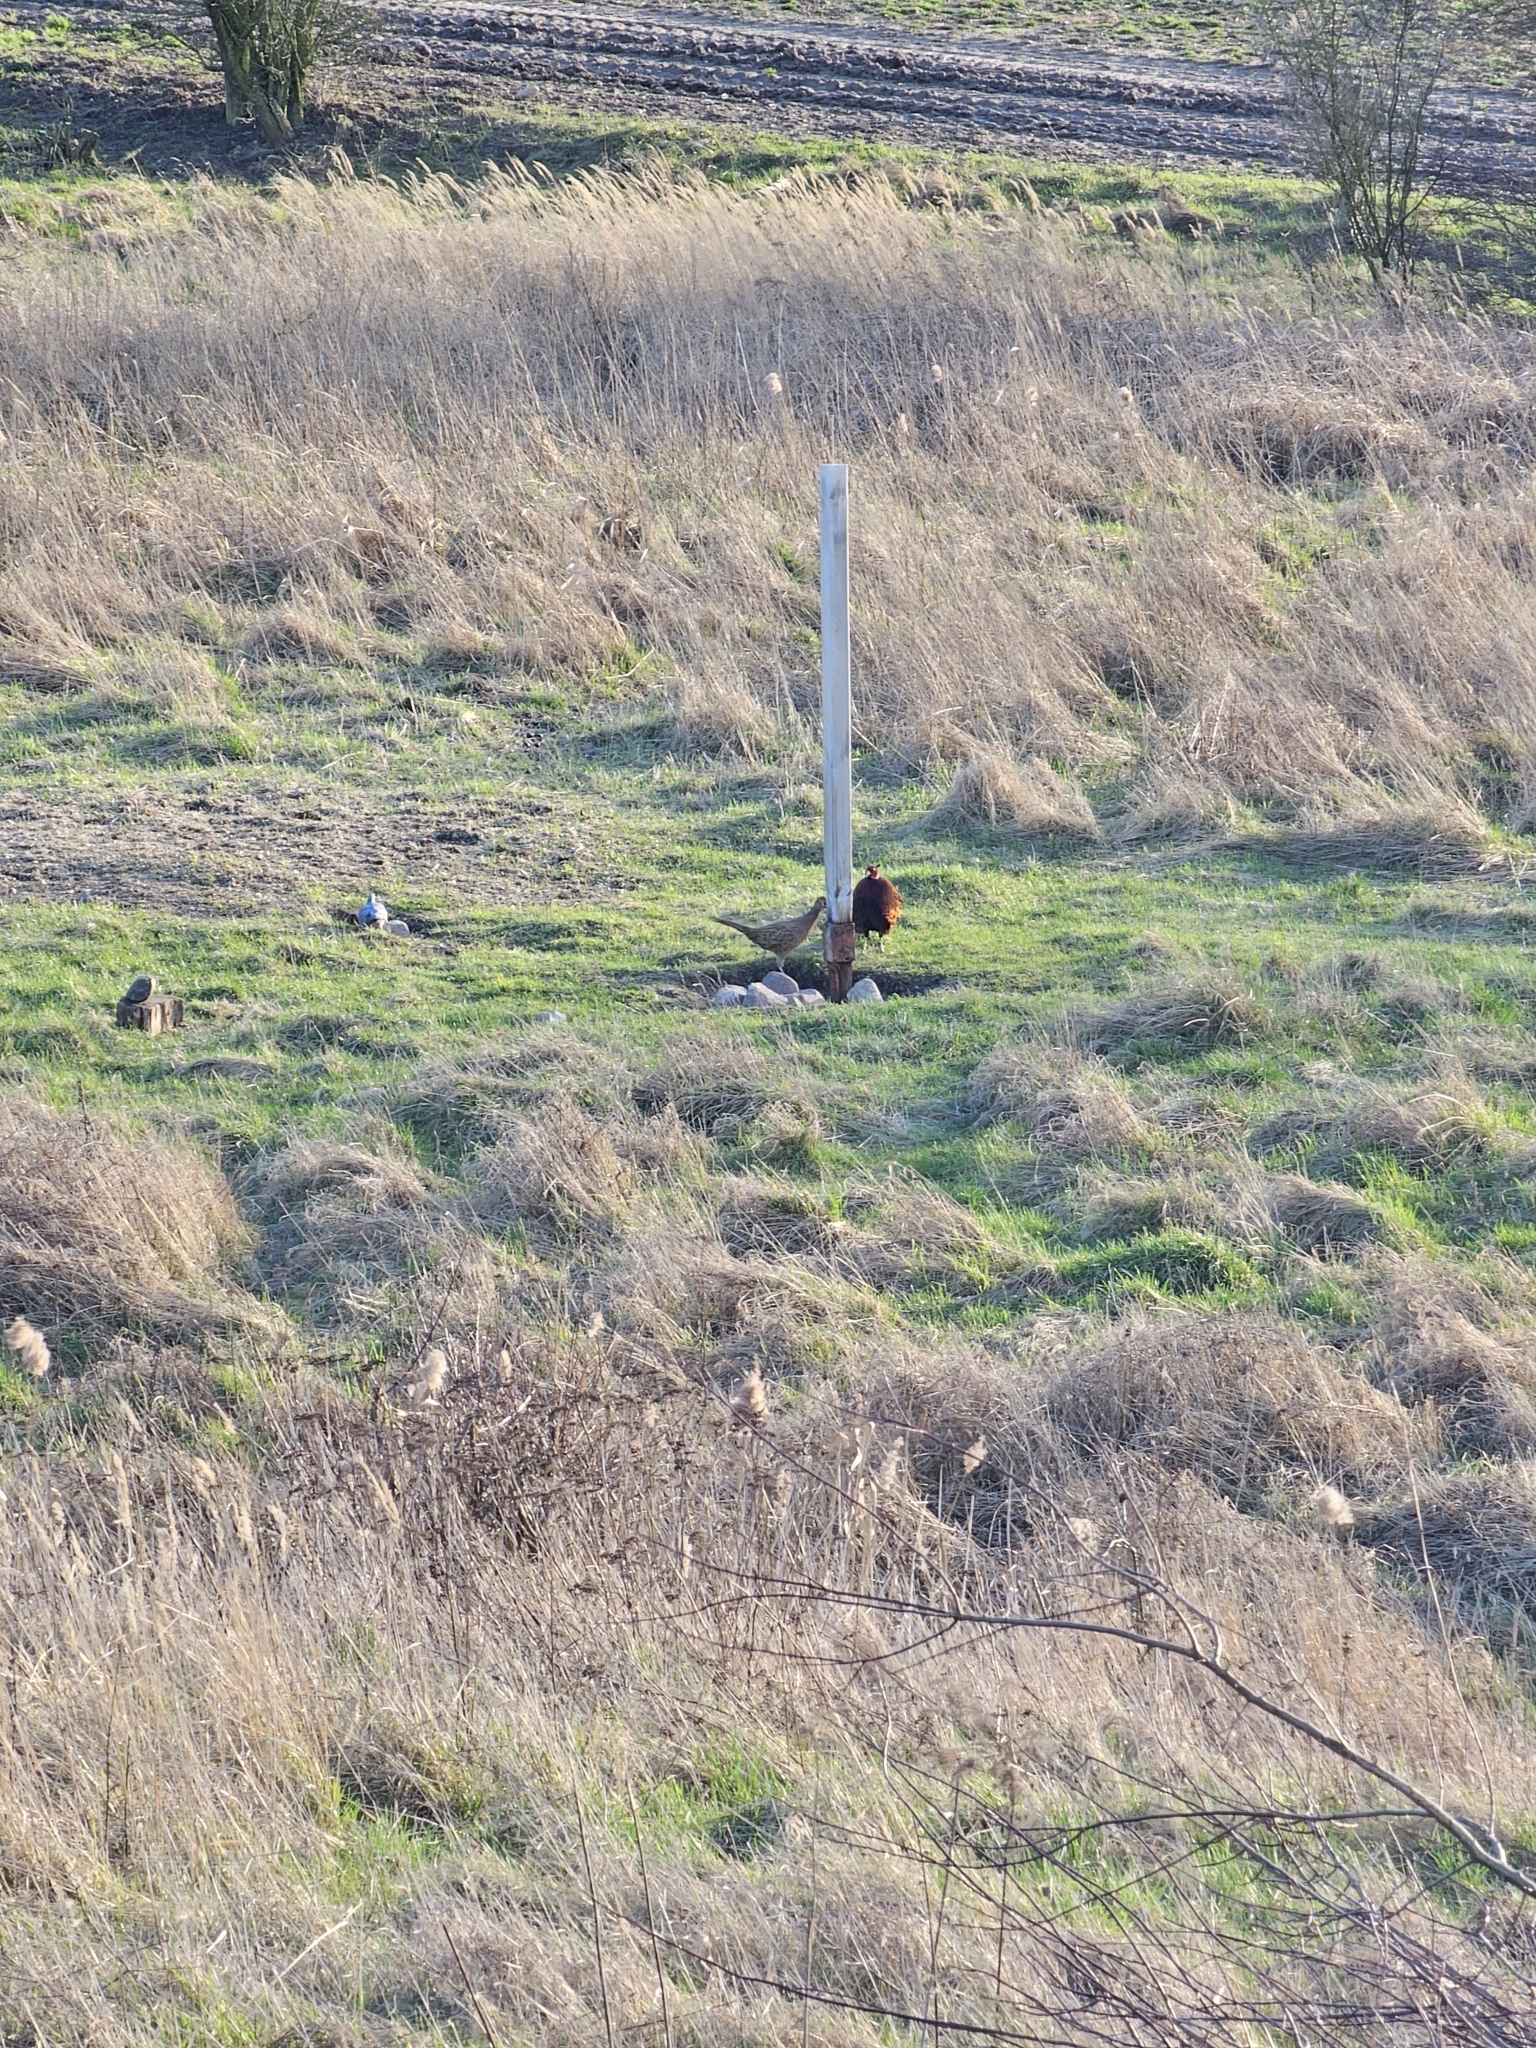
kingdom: Animalia
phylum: Chordata
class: Aves
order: Galliformes
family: Phasianidae
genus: Phasianus
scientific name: Phasianus colchicus
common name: Common pheasant
